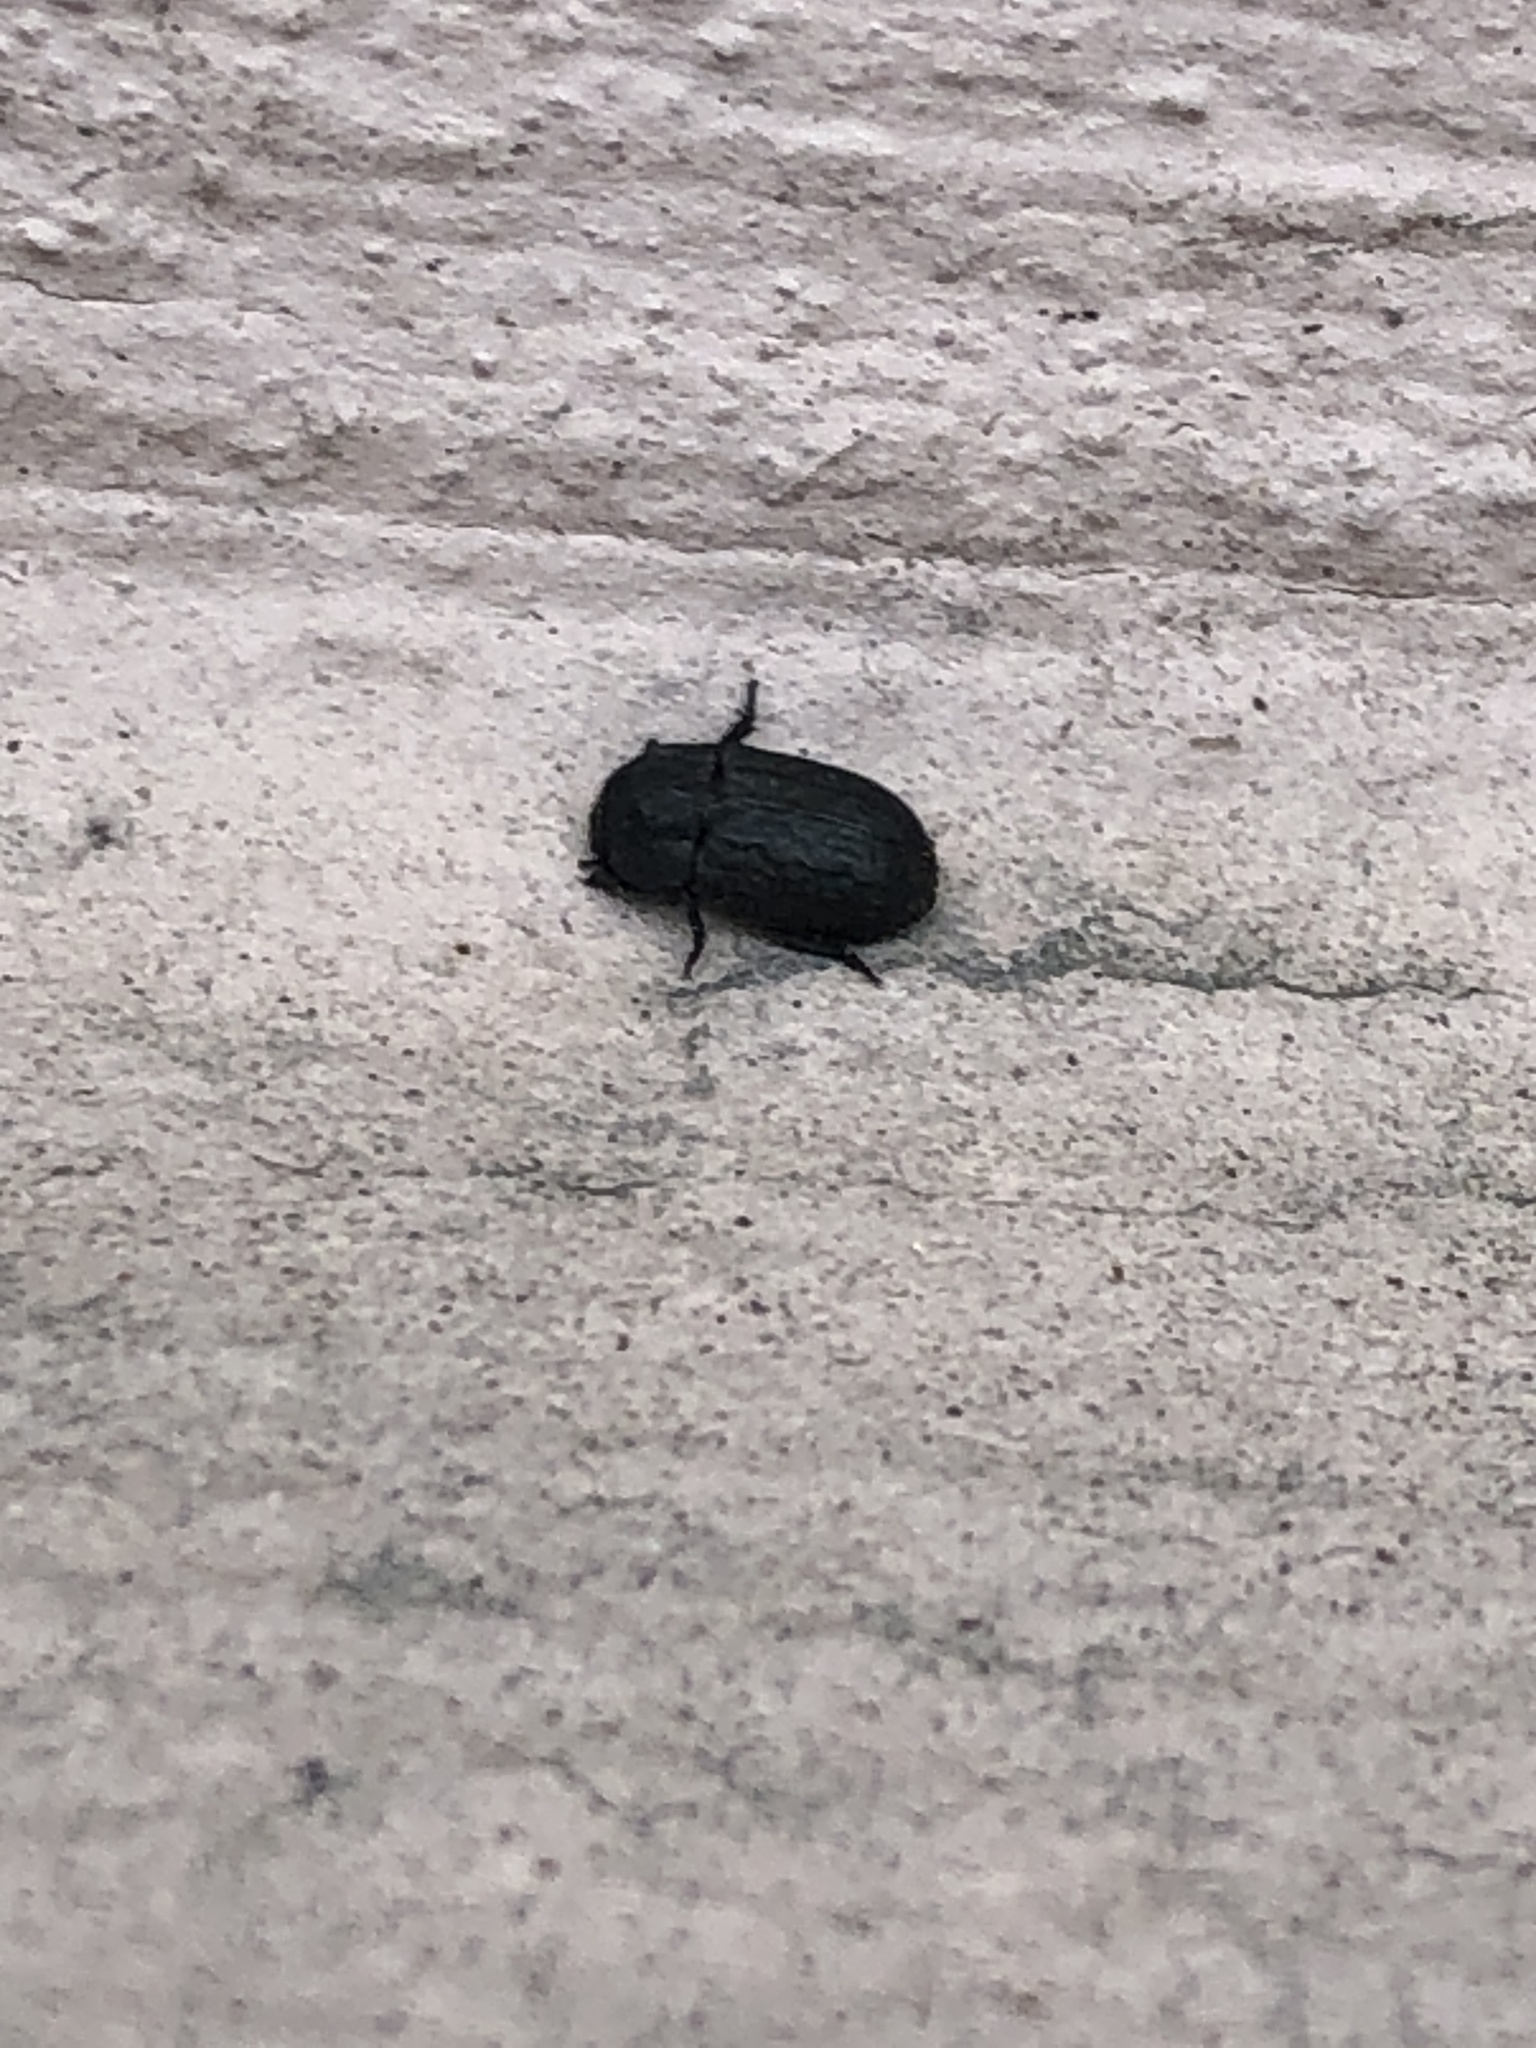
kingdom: Animalia
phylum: Arthropoda
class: Insecta
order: Coleoptera
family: Tenebrionidae
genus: Melanimon
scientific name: Melanimon tibialis
